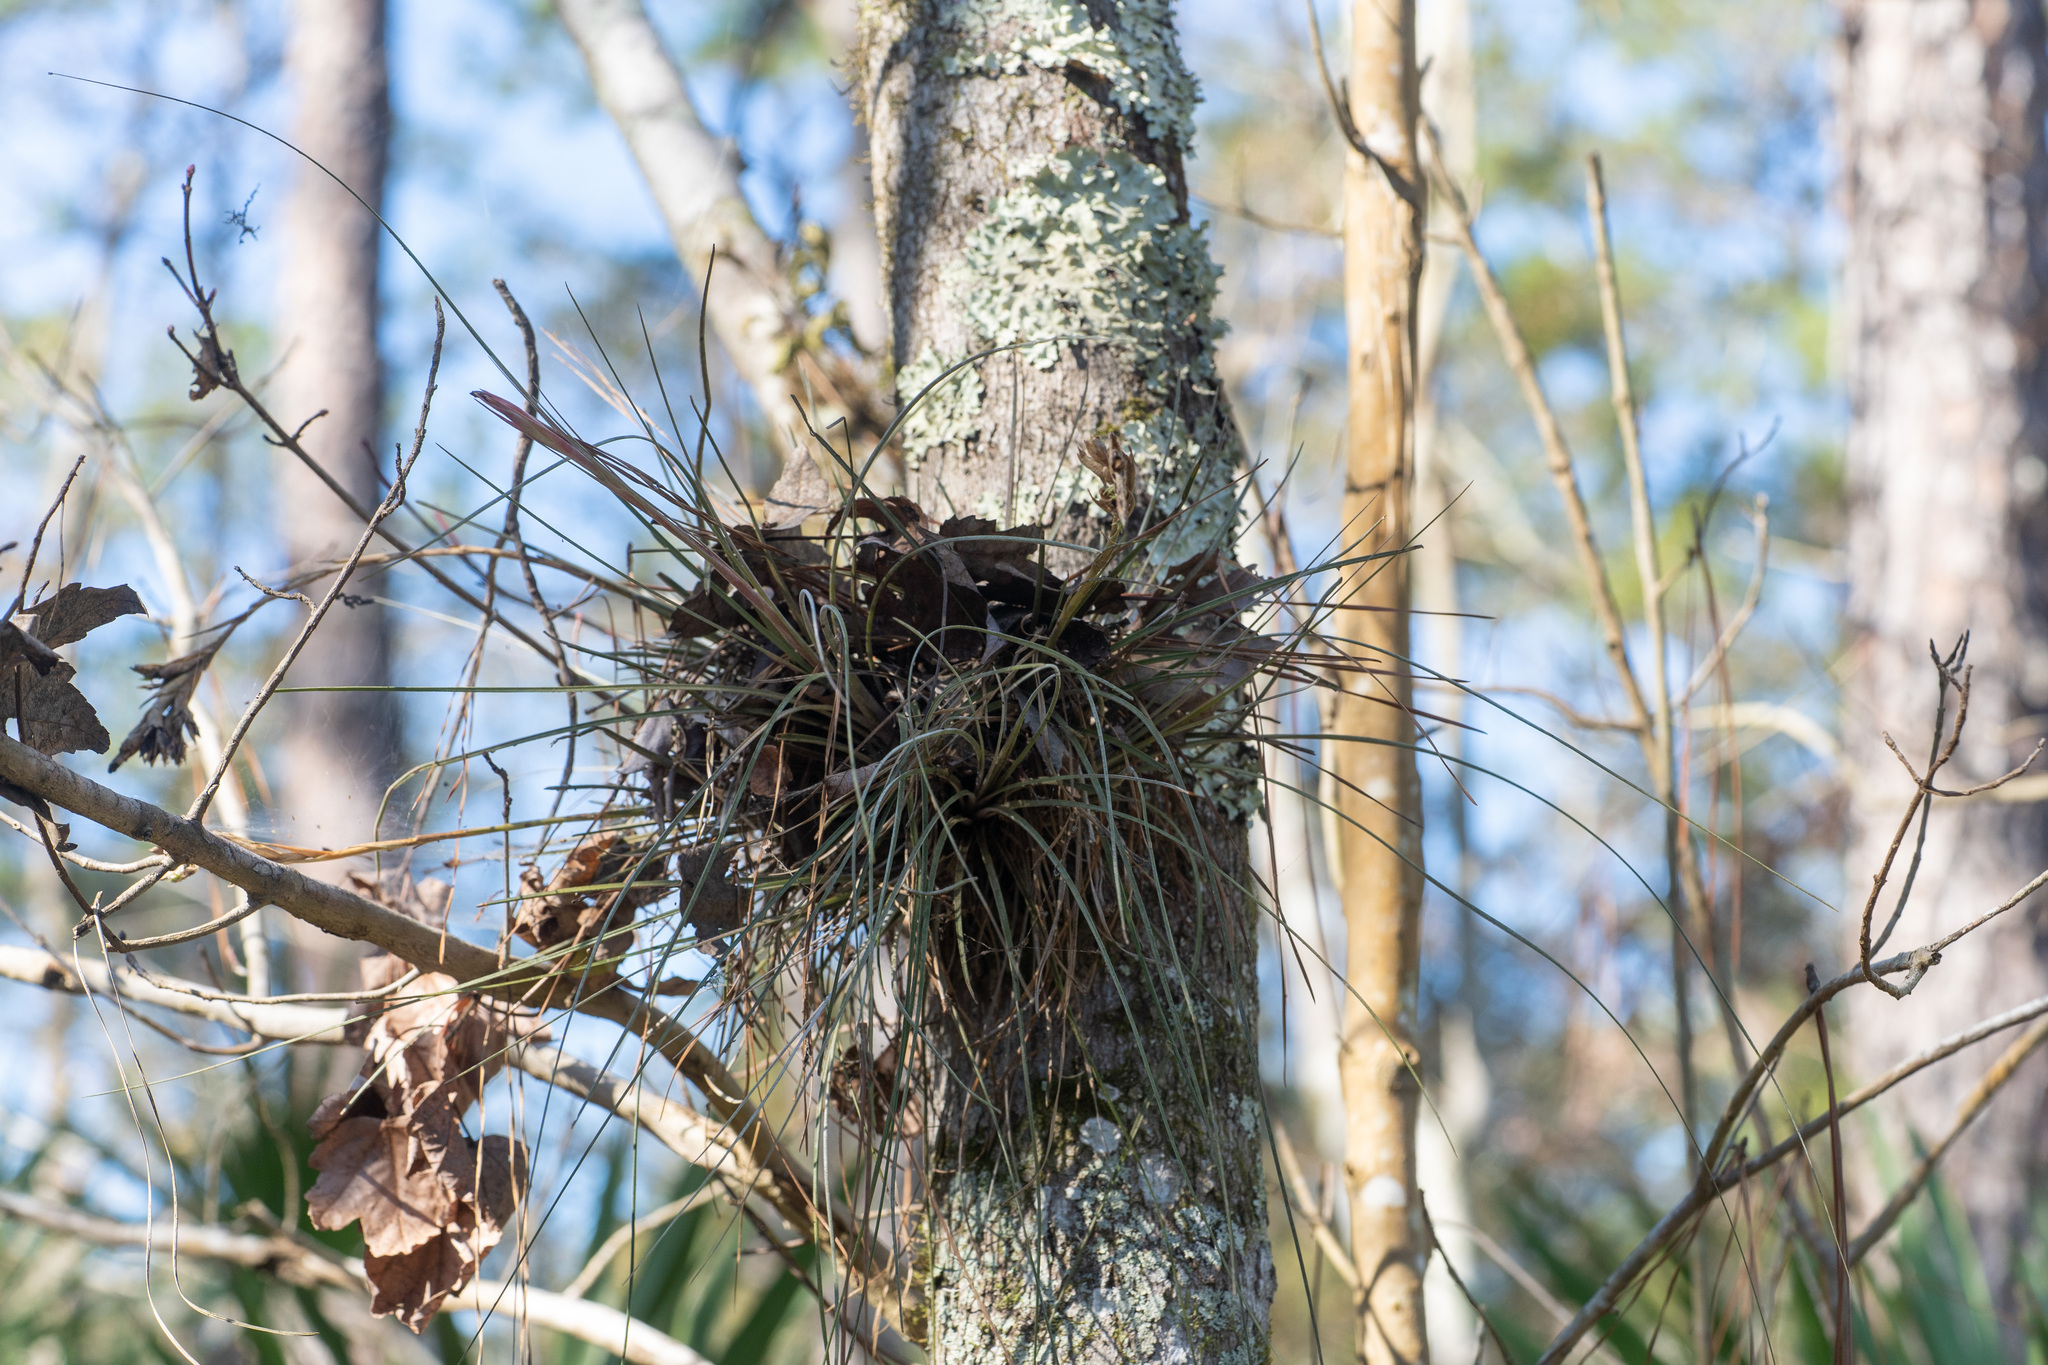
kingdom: Plantae
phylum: Tracheophyta
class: Liliopsida
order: Poales
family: Bromeliaceae
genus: Tillandsia
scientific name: Tillandsia bartramii
